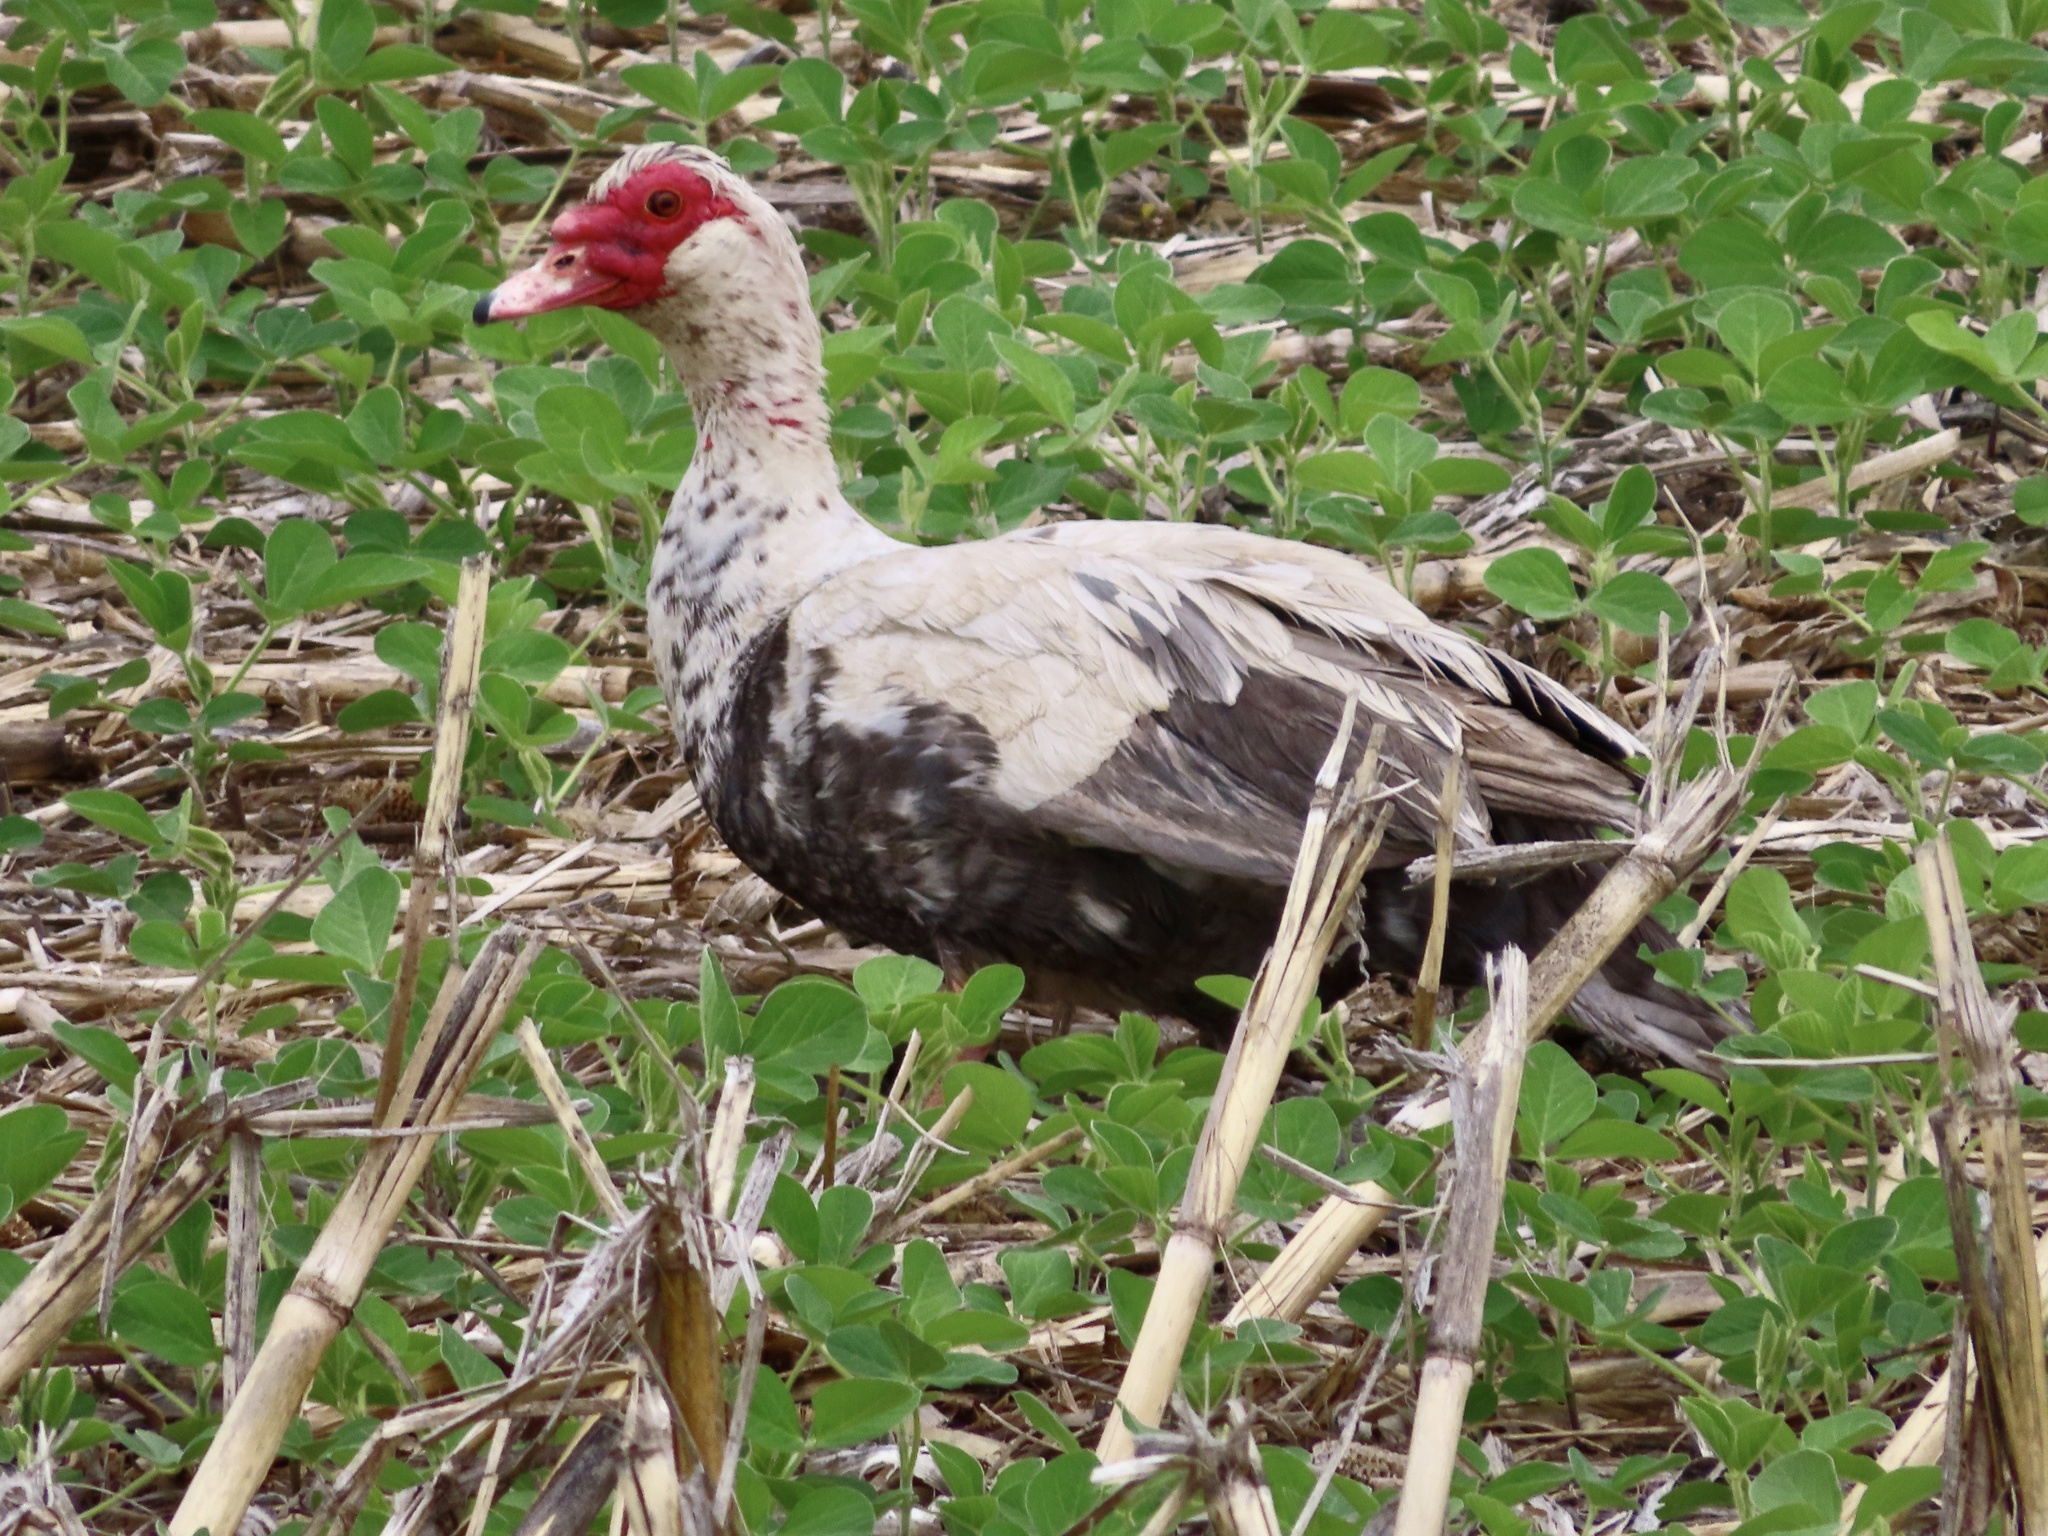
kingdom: Animalia
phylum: Chordata
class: Aves
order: Anseriformes
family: Anatidae
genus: Cairina
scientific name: Cairina moschata
